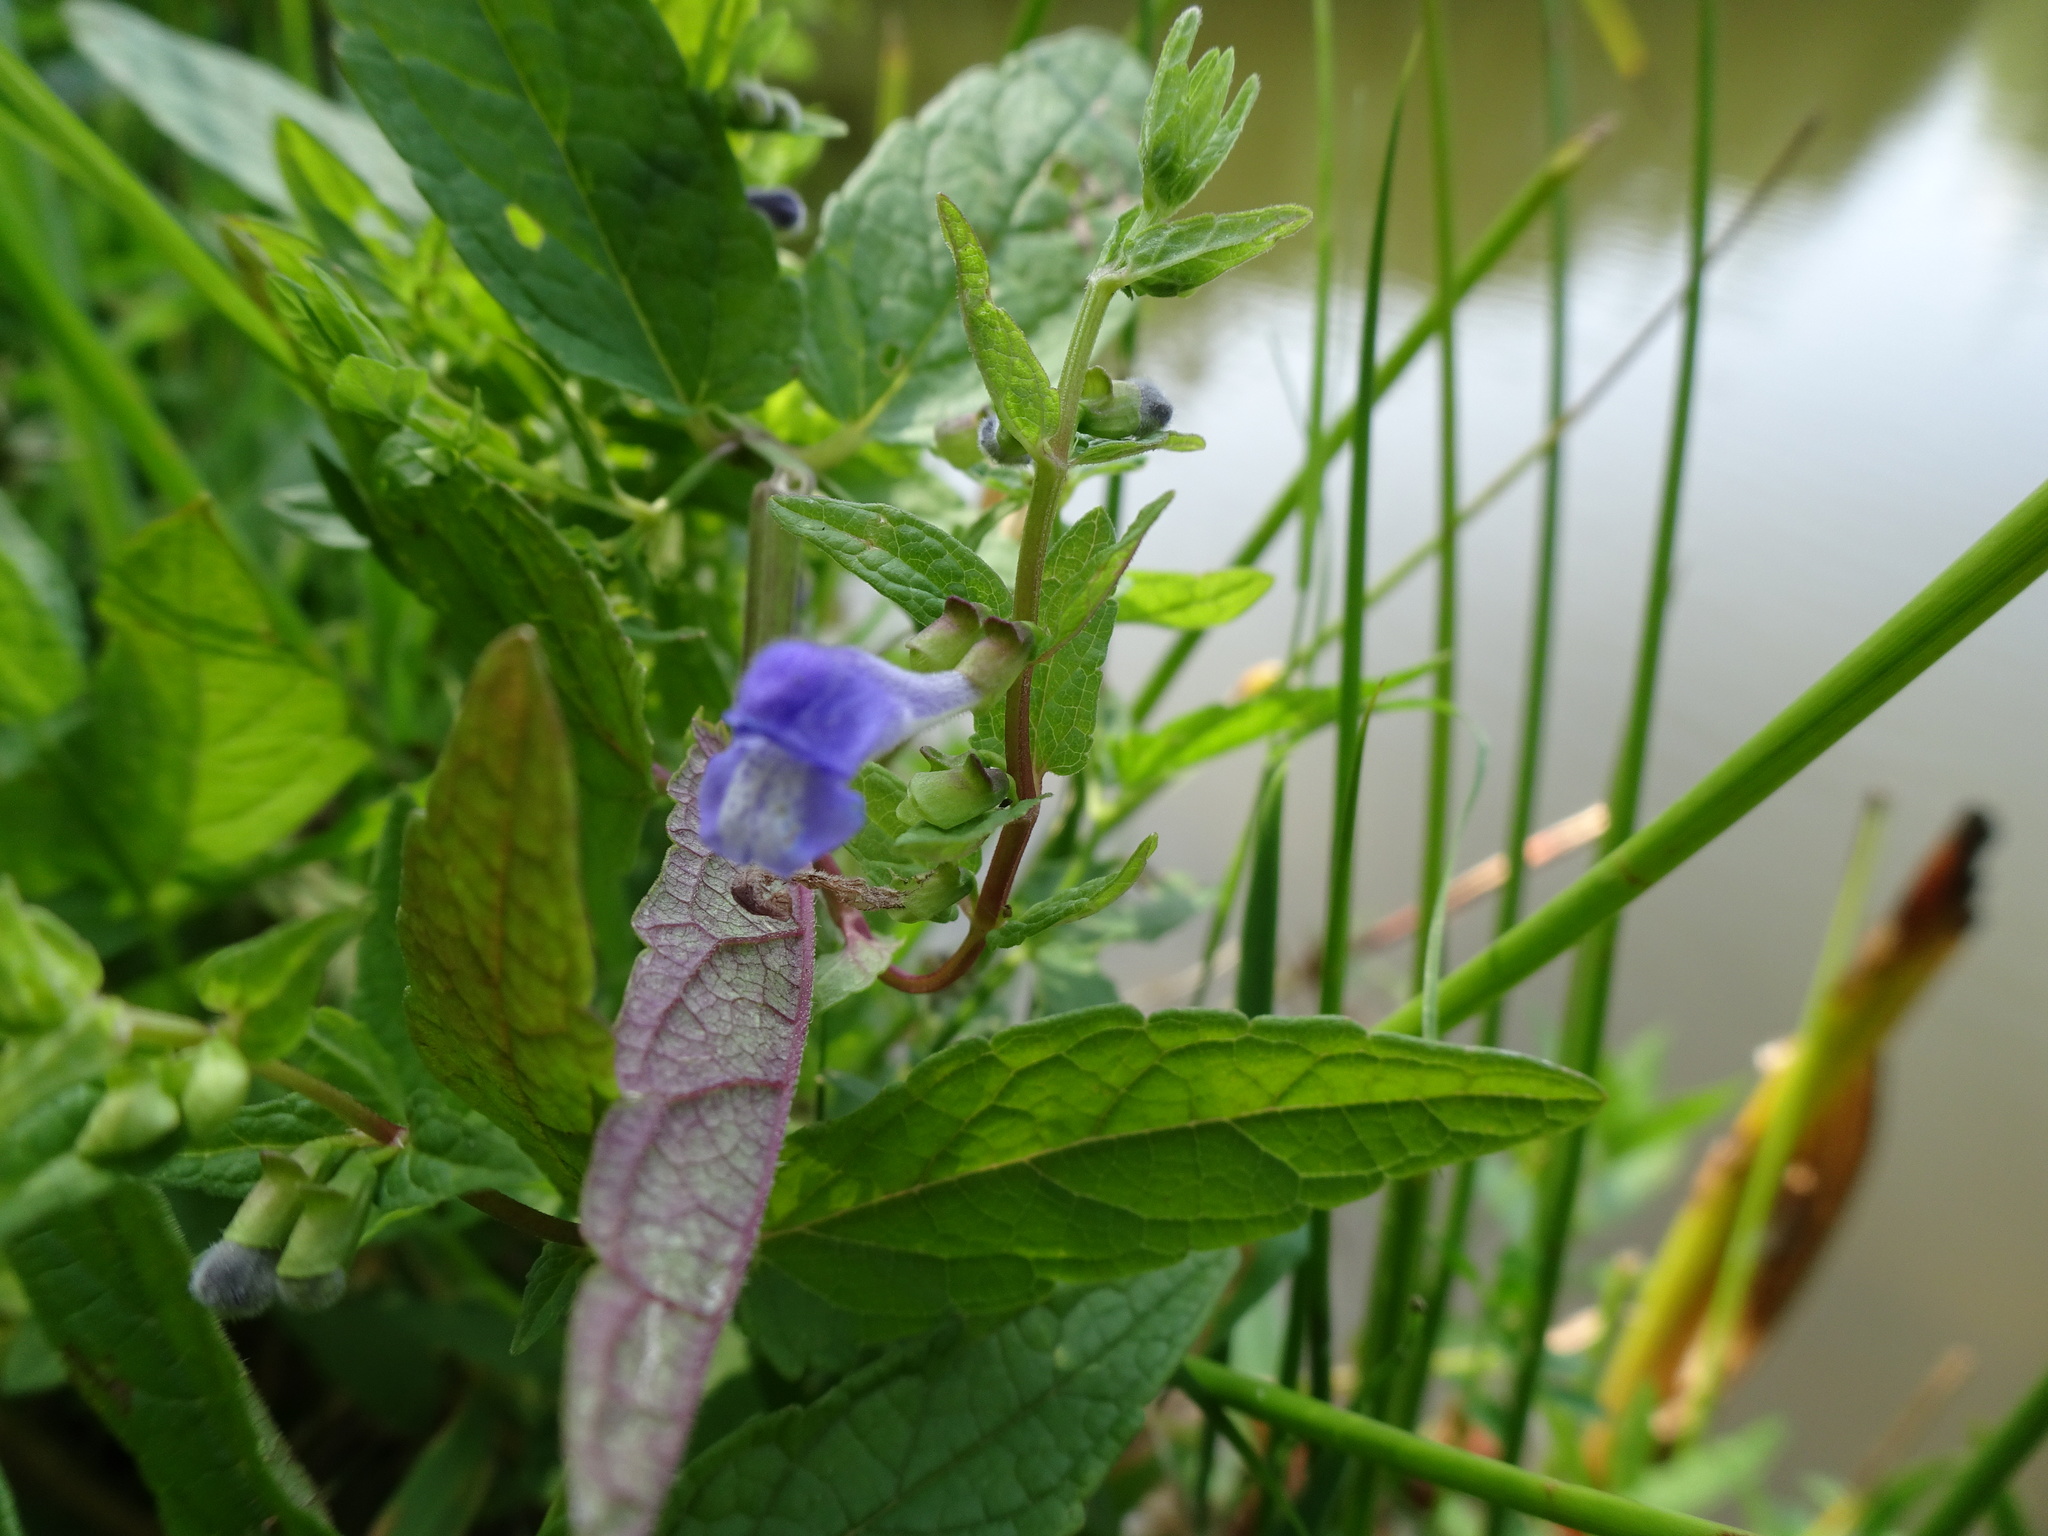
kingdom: Plantae
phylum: Tracheophyta
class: Magnoliopsida
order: Lamiales
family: Lamiaceae
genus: Scutellaria
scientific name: Scutellaria galericulata
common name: Skullcap
